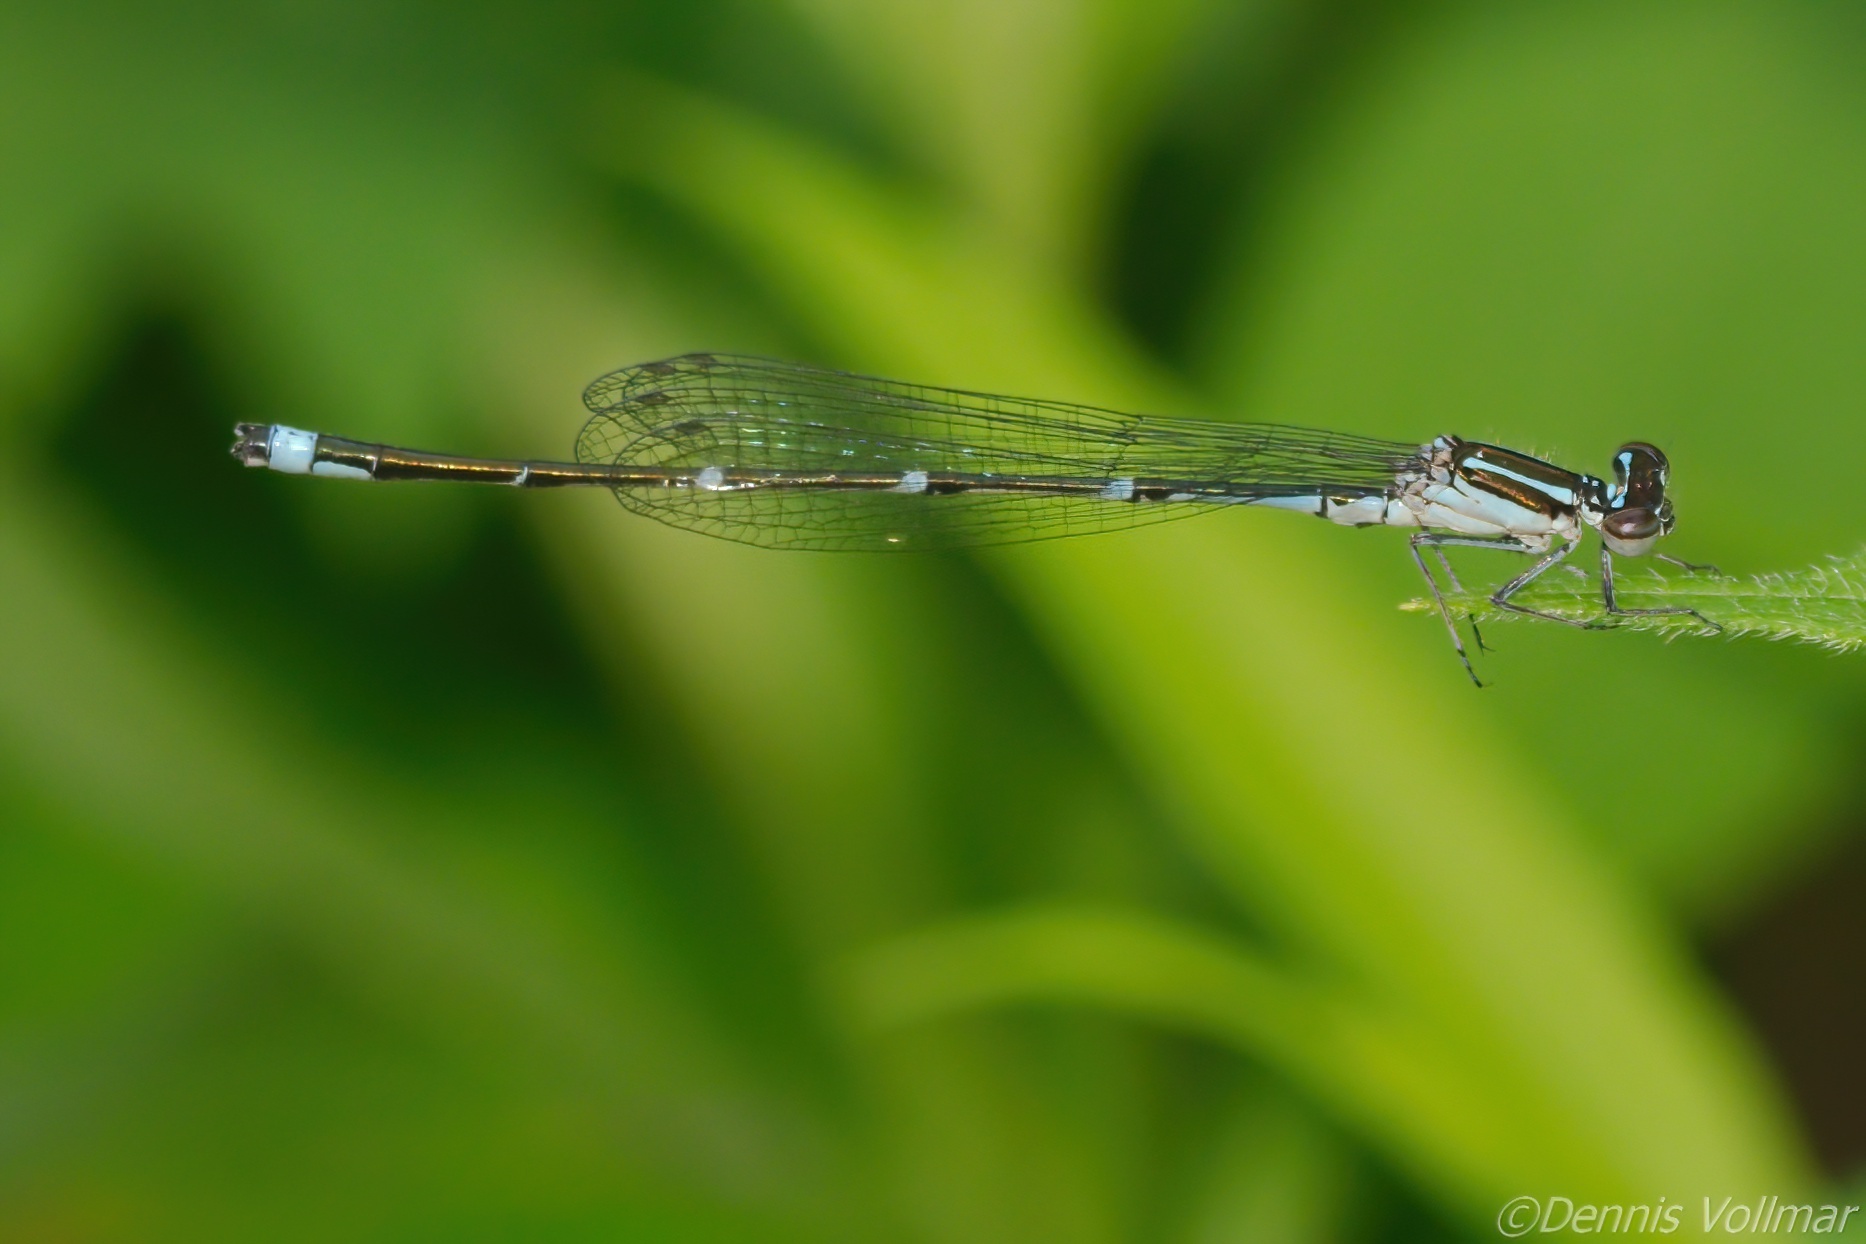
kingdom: Animalia
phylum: Arthropoda
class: Insecta
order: Odonata
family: Coenagrionidae
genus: Enallagma
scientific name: Enallagma exsulans
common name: Stream bluet
